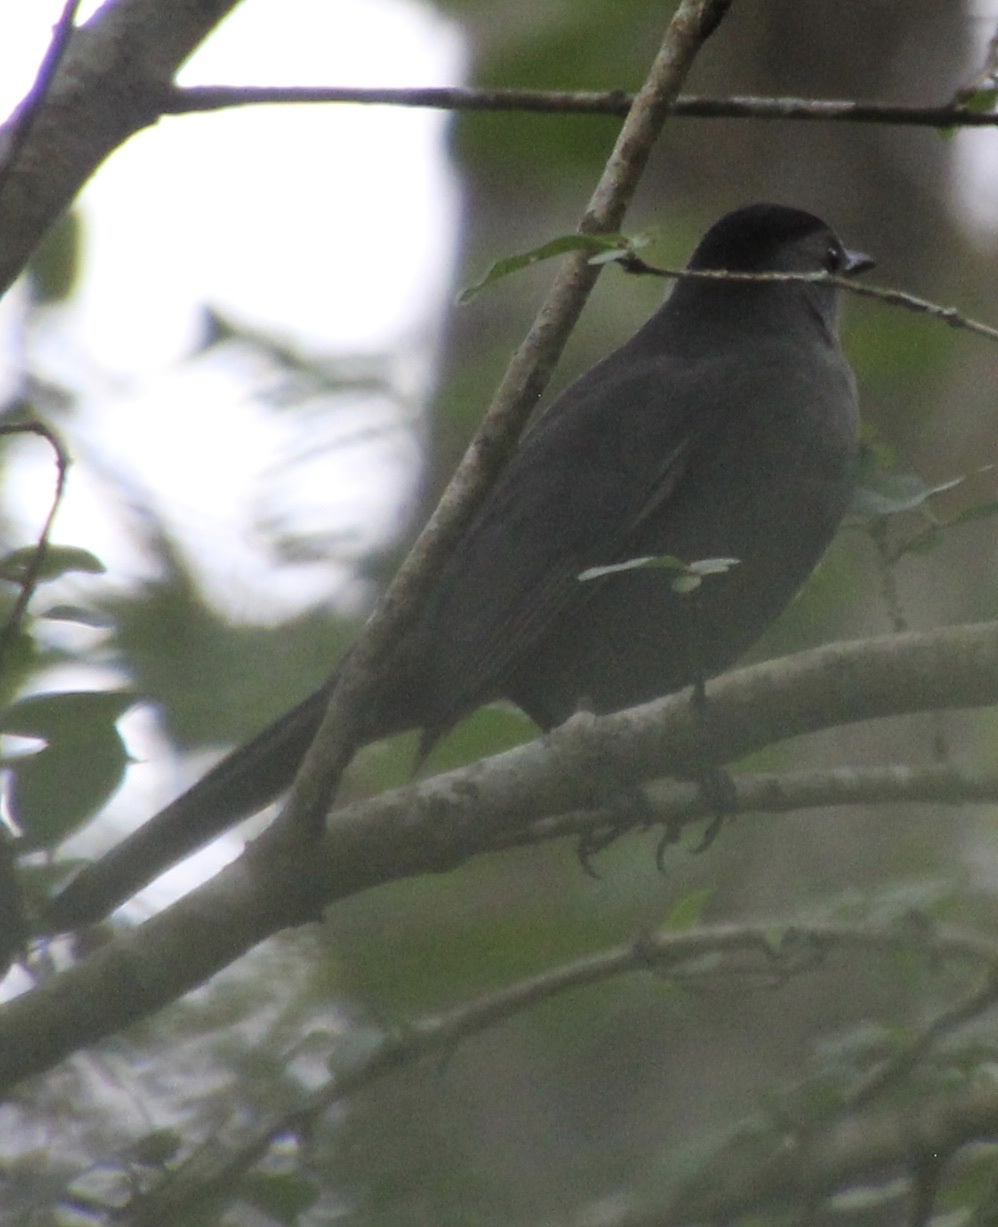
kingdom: Animalia
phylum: Chordata
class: Aves
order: Passeriformes
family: Mimidae
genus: Dumetella
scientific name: Dumetella carolinensis
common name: Gray catbird
